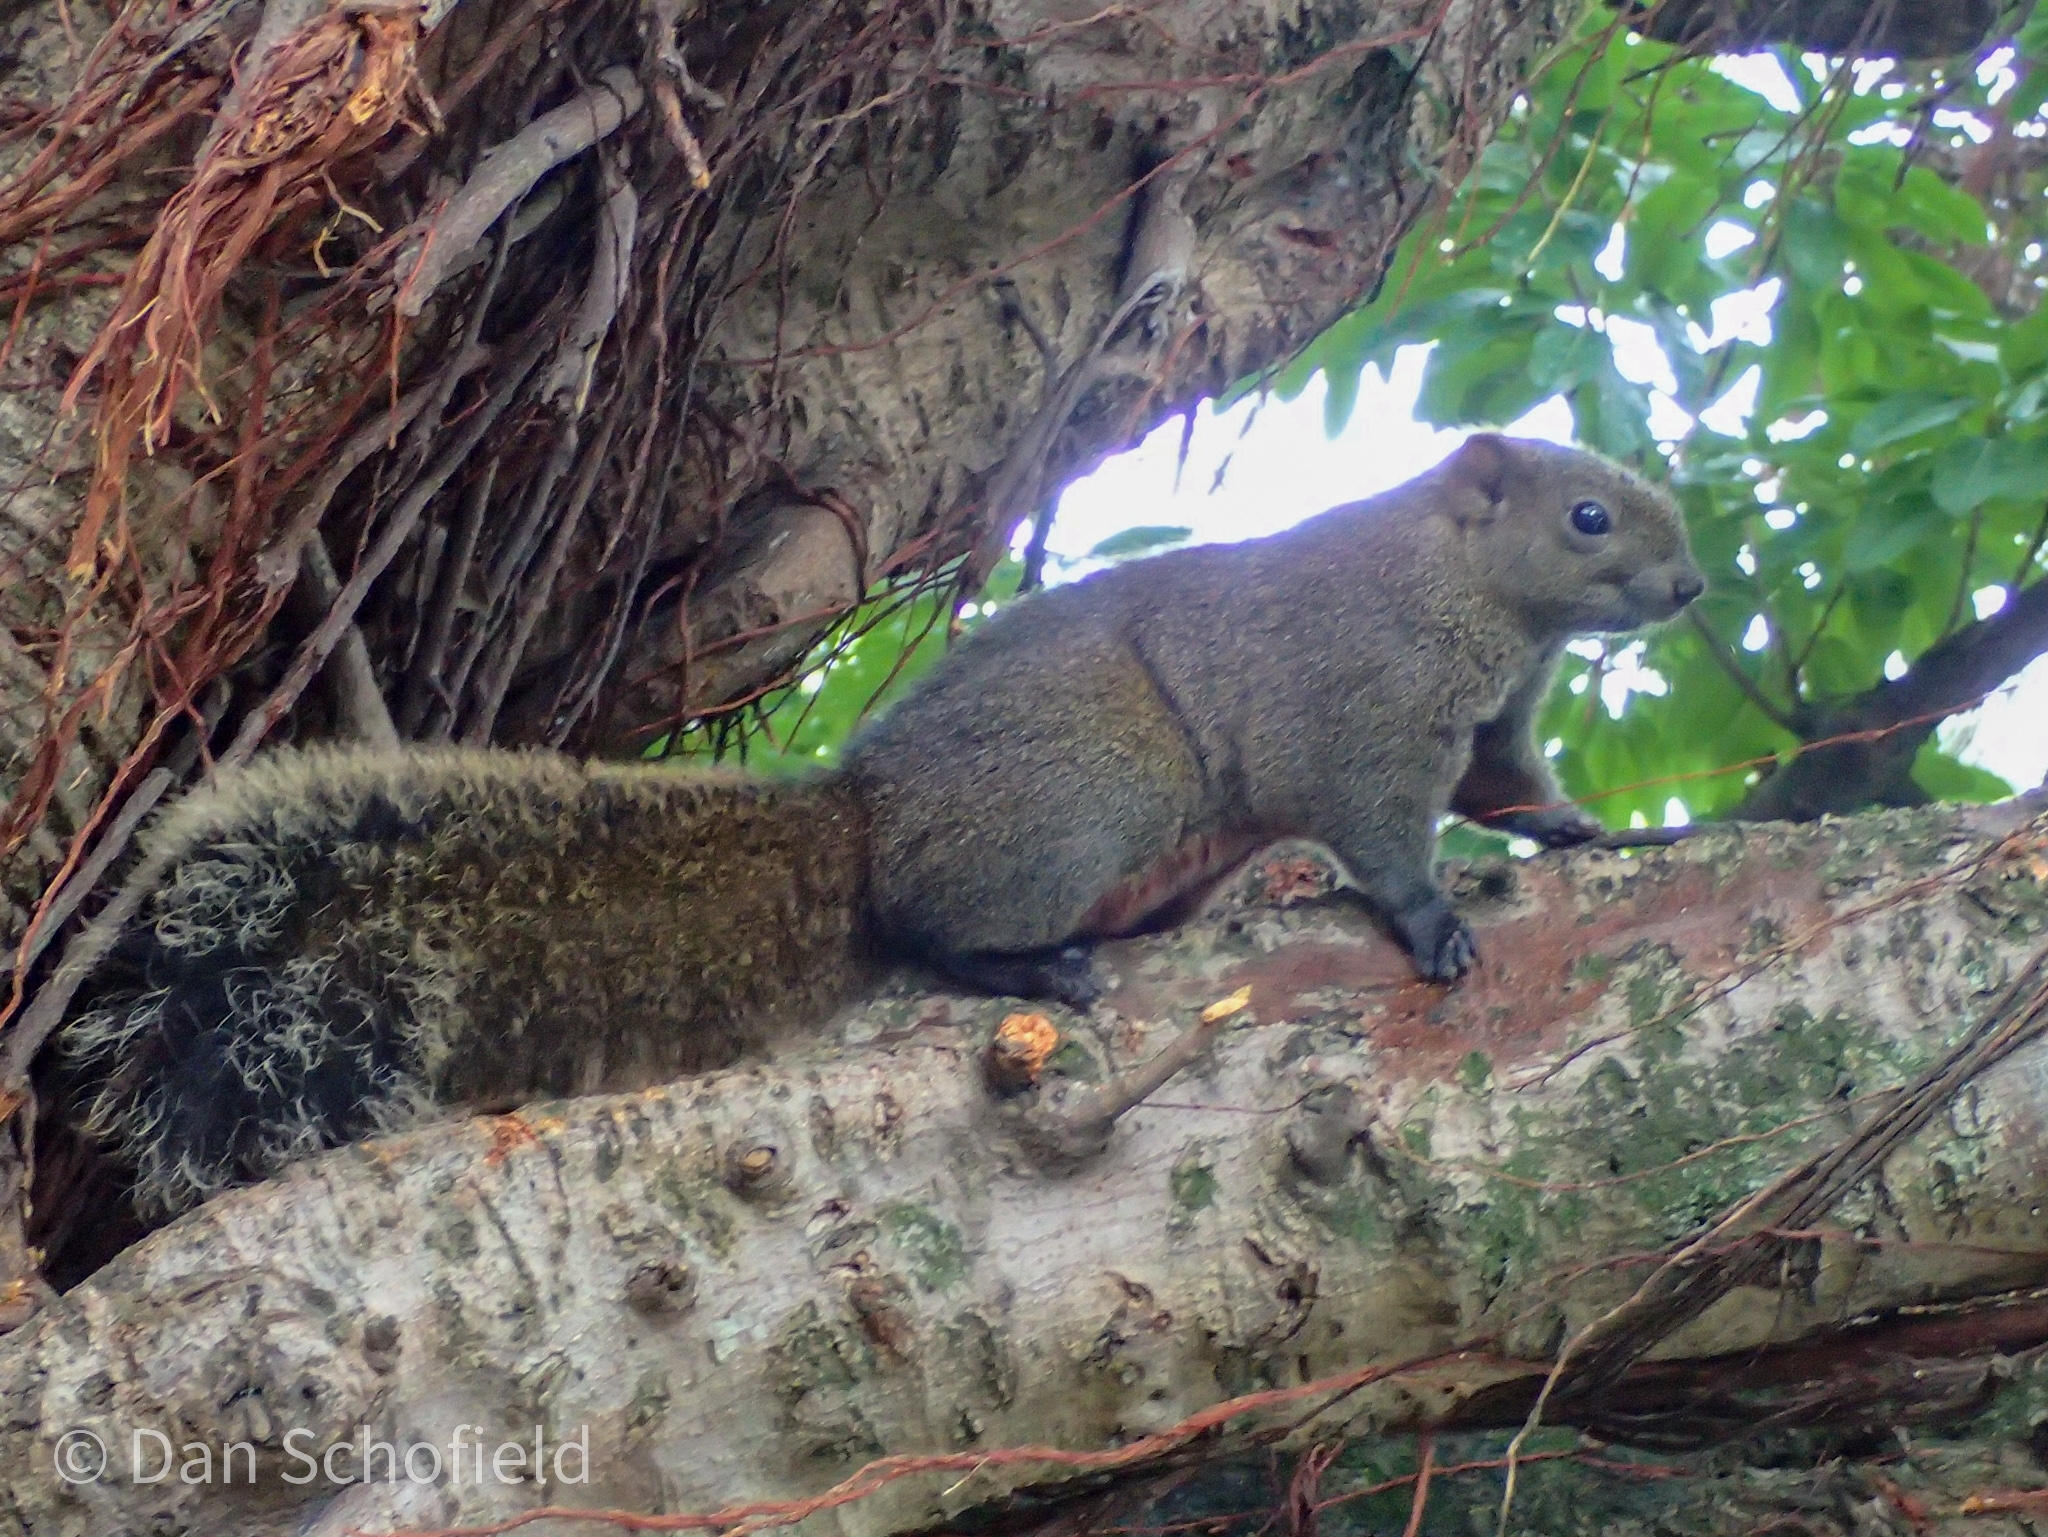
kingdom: Animalia
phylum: Chordata
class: Mammalia
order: Rodentia
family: Sciuridae
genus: Callosciurus
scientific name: Callosciurus erythraeus
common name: Pallas's squirrel
